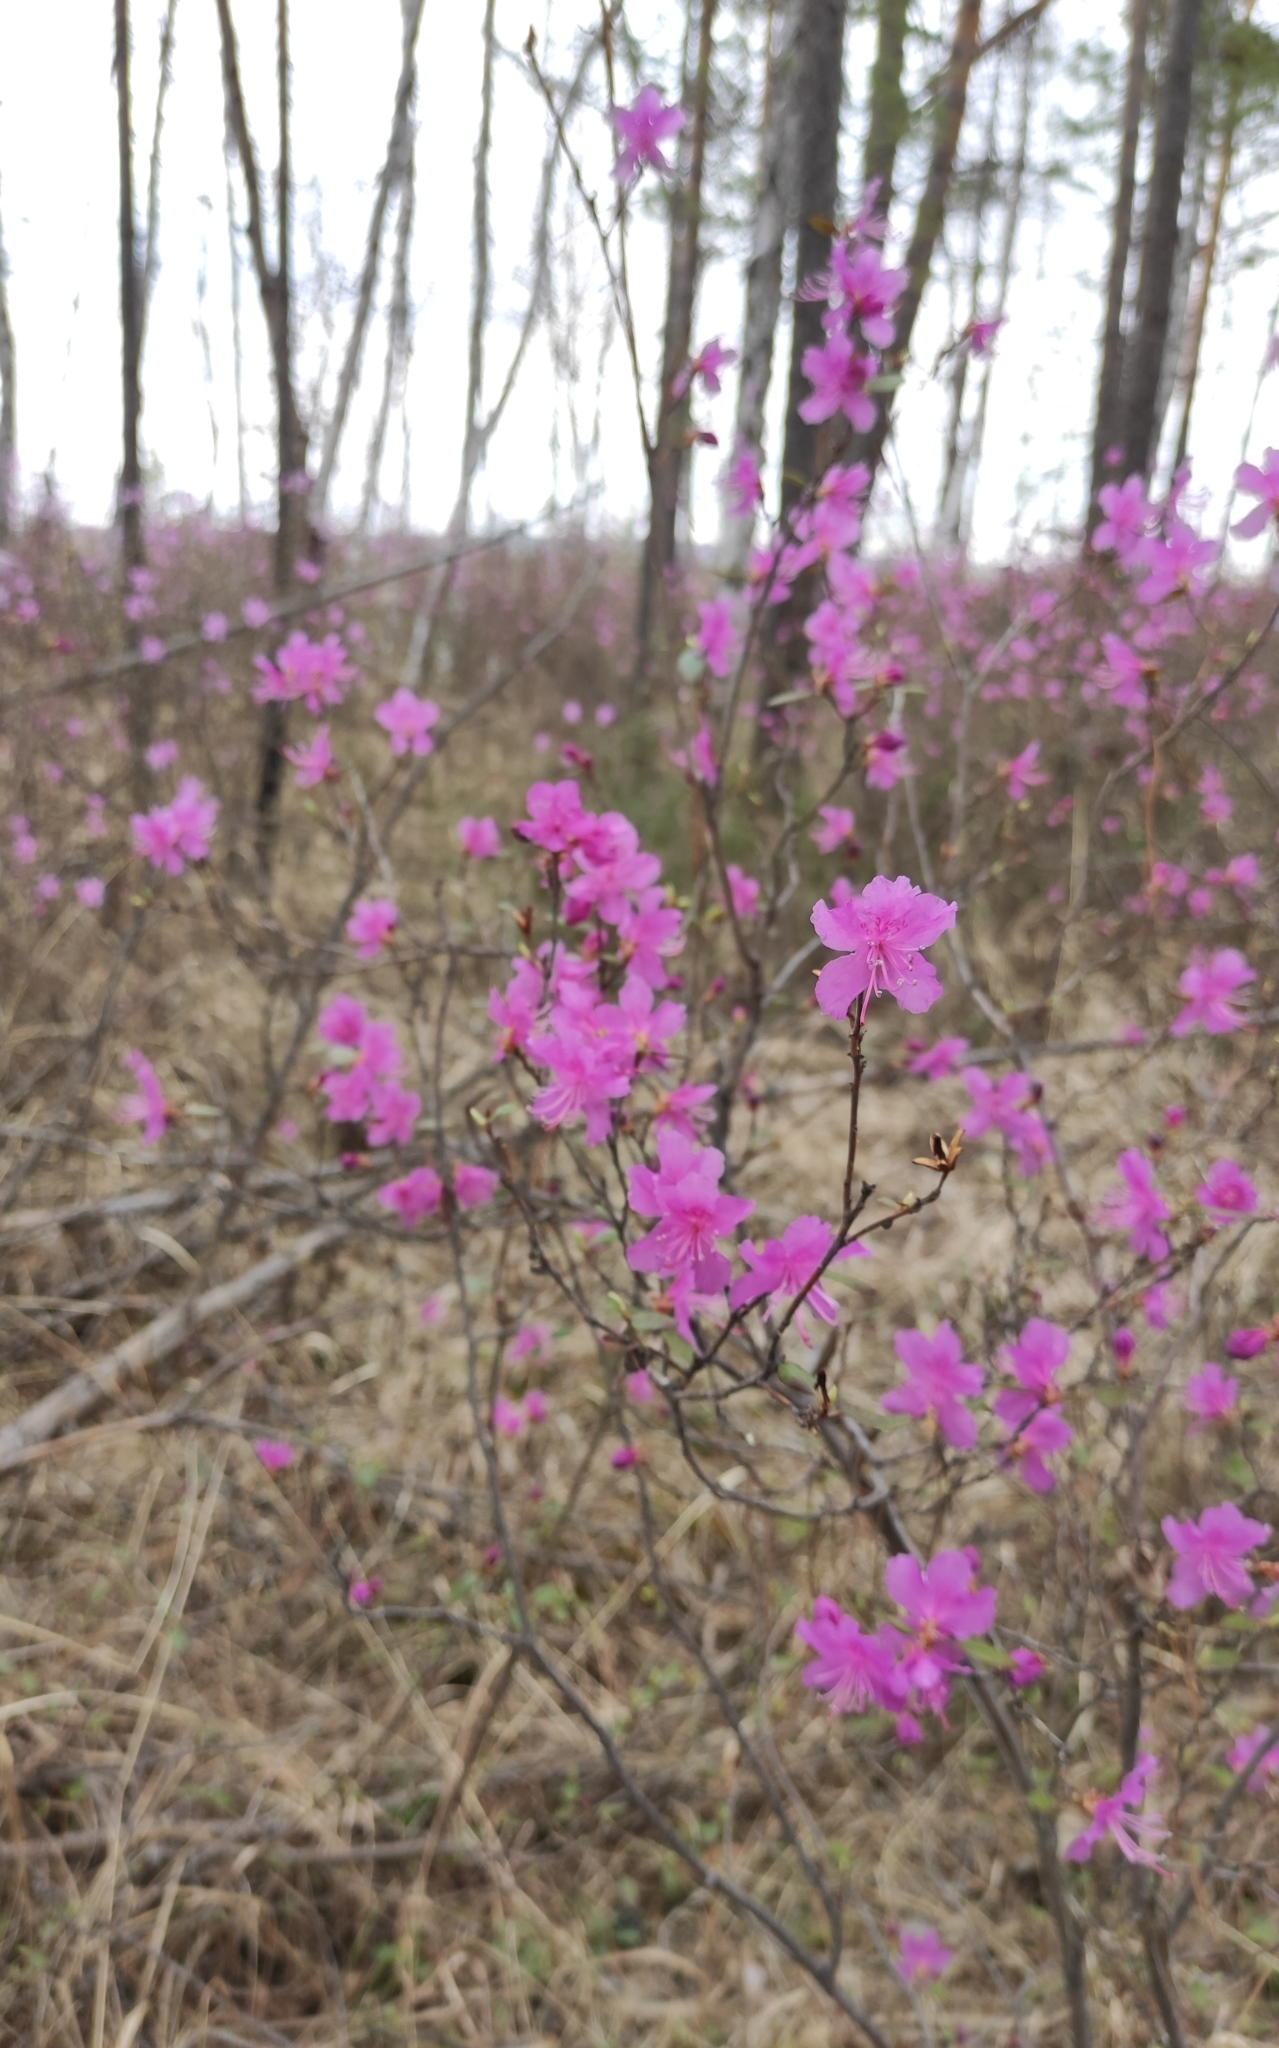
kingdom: Plantae
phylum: Tracheophyta
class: Magnoliopsida
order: Ericales
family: Ericaceae
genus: Rhododendron
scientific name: Rhododendron dauricum
